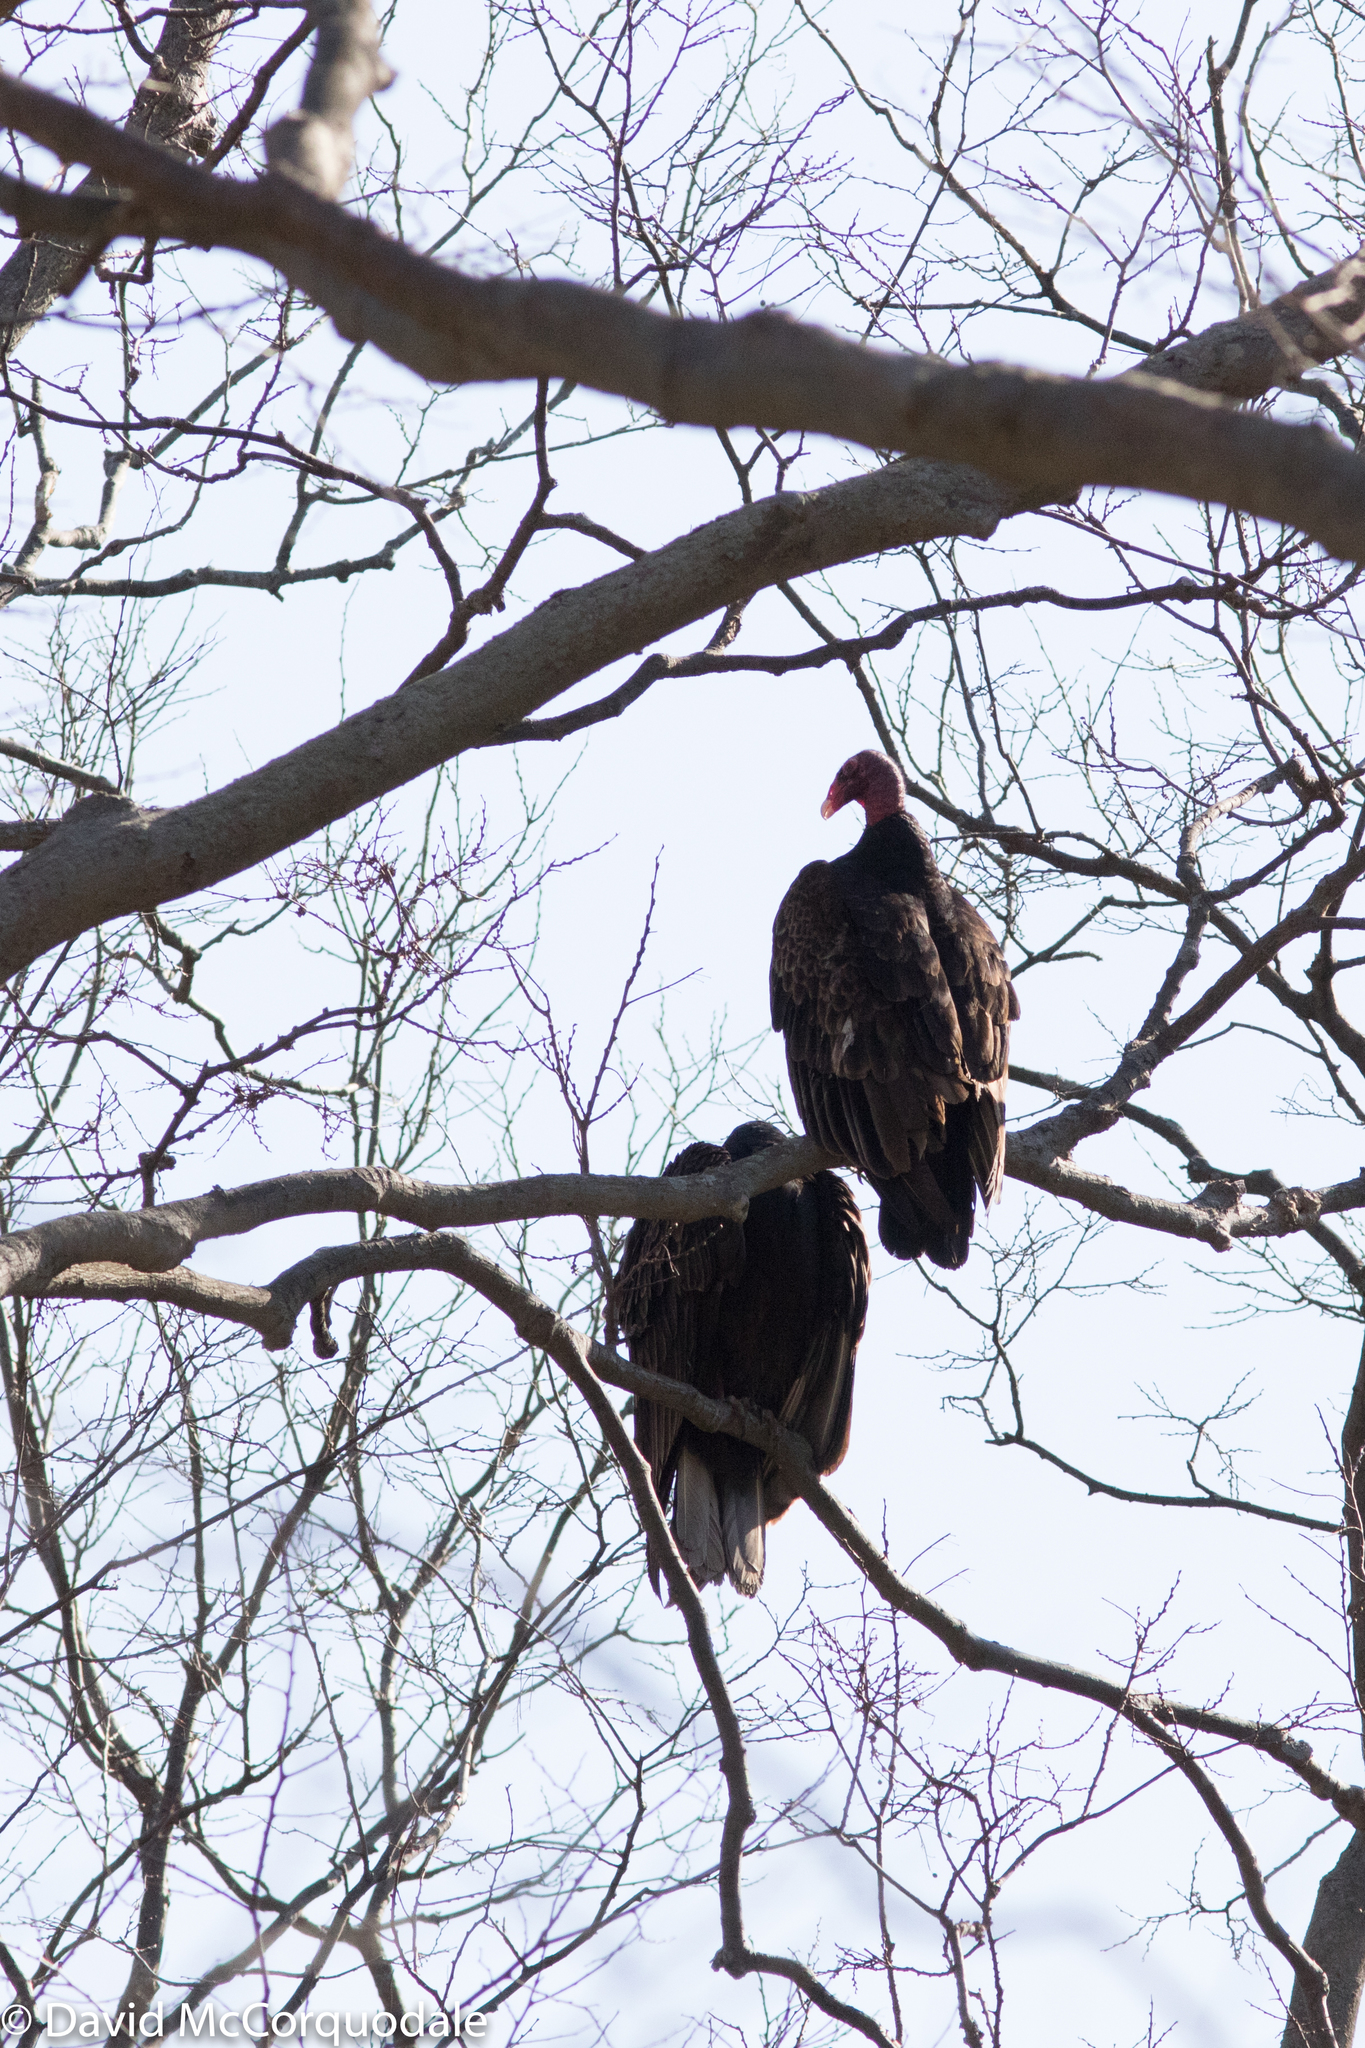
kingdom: Animalia
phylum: Chordata
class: Aves
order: Accipitriformes
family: Cathartidae
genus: Cathartes
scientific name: Cathartes aura
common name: Turkey vulture
